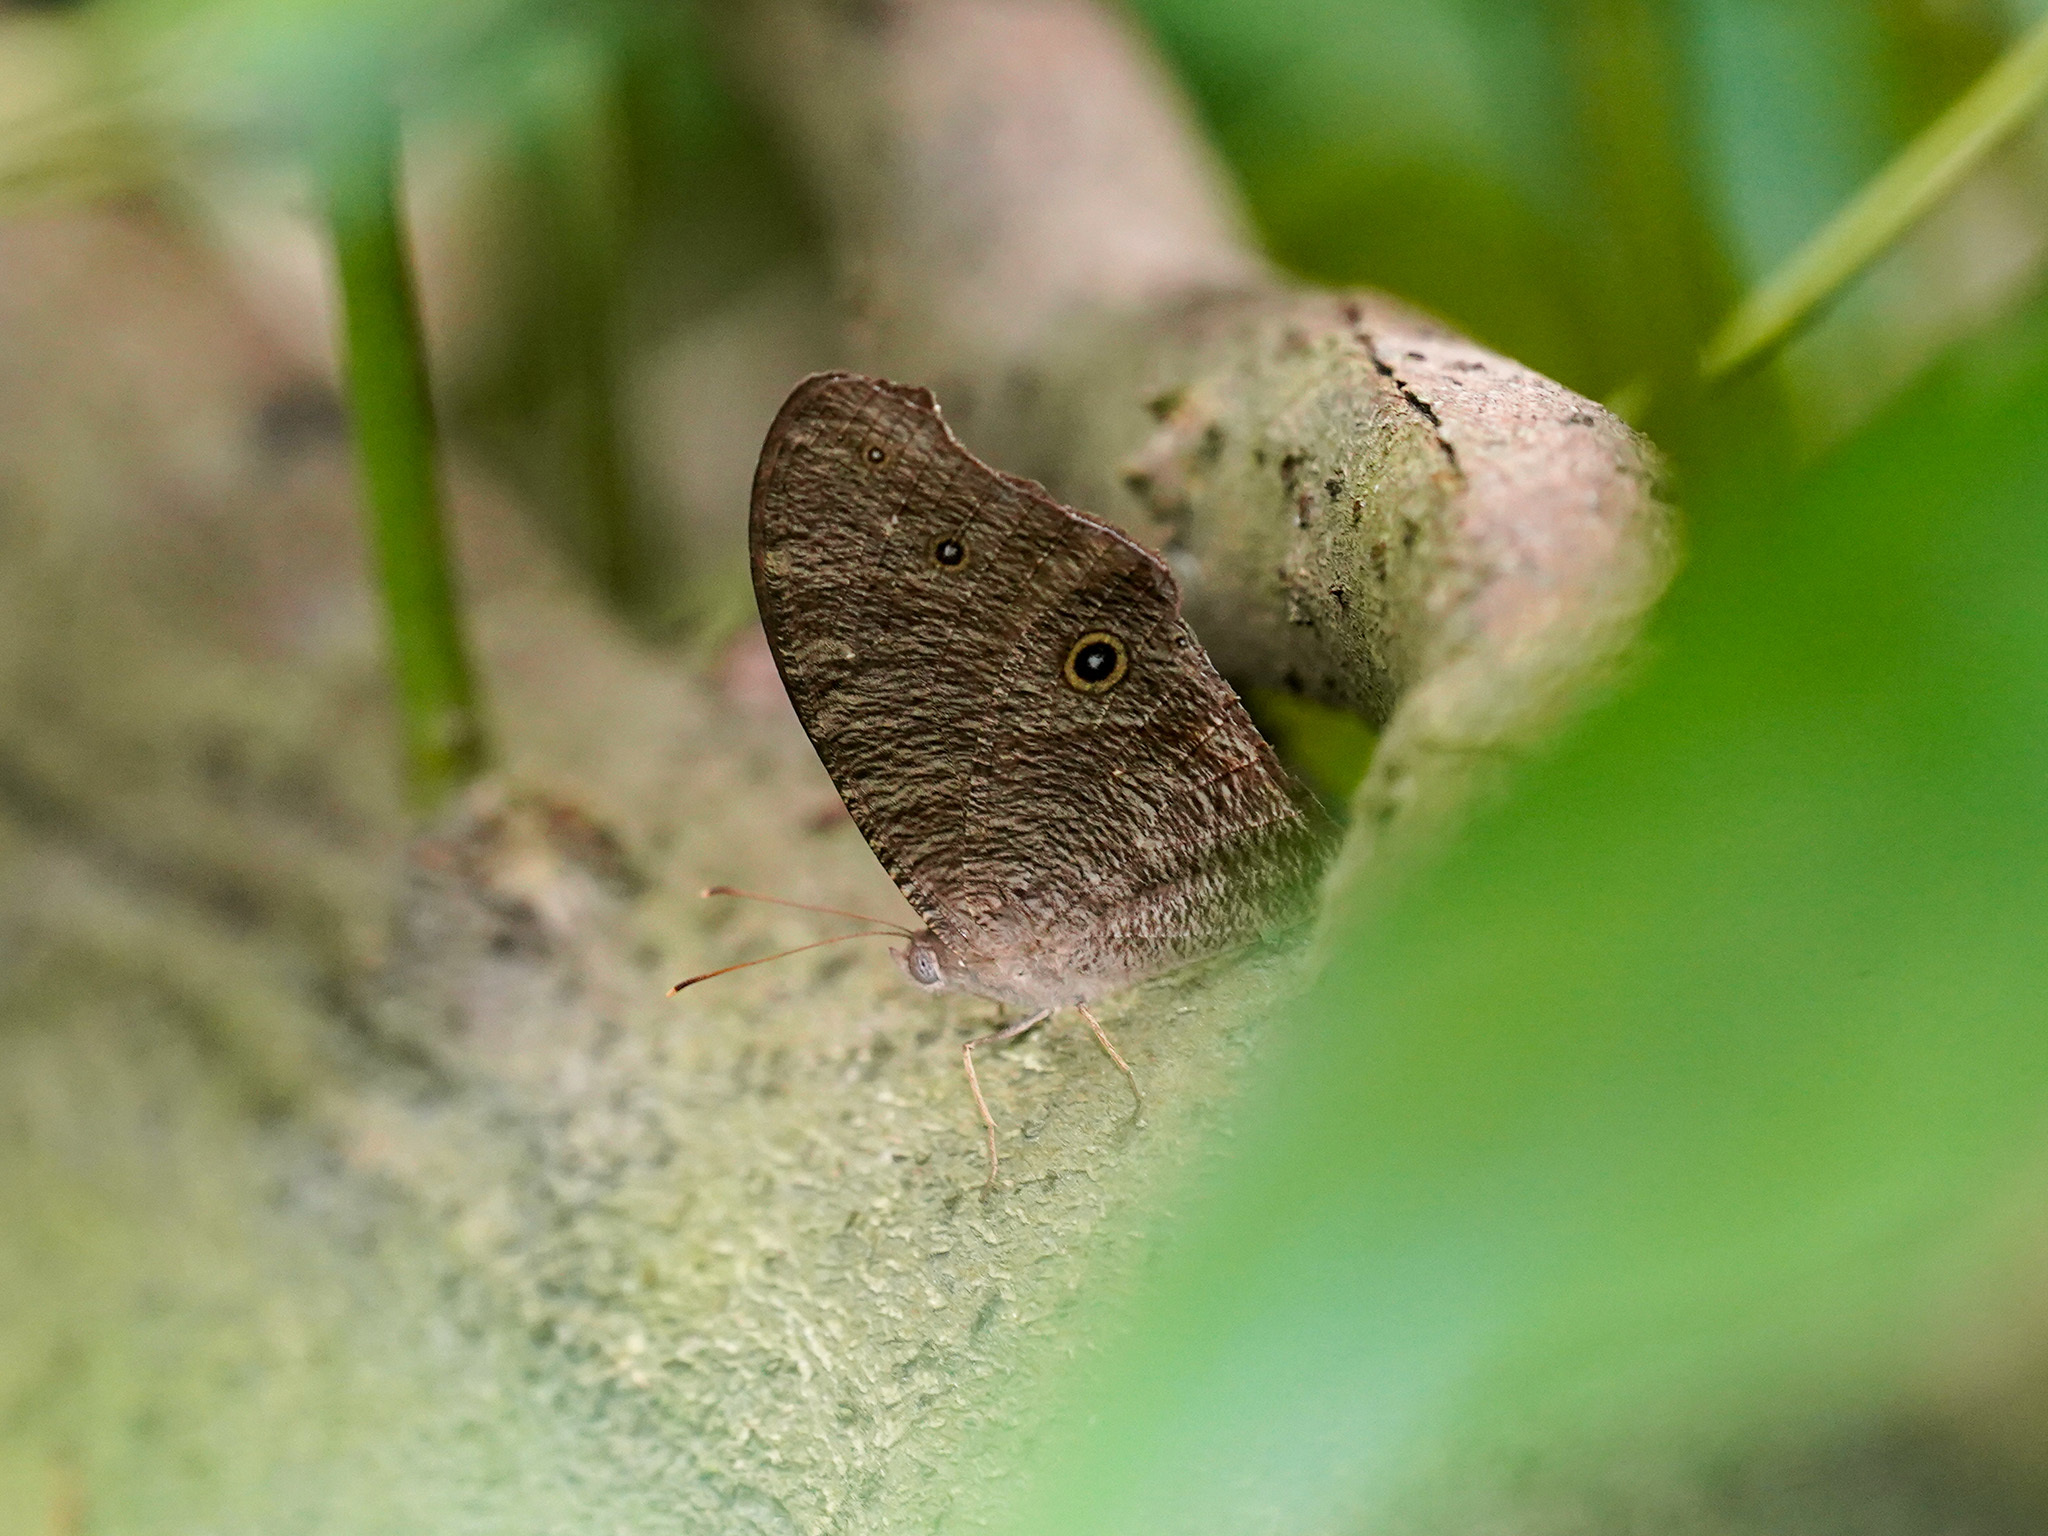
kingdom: Animalia
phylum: Arthropoda
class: Insecta
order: Lepidoptera
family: Nymphalidae
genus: Melanitis
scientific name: Melanitis leda
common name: Twilight brown
